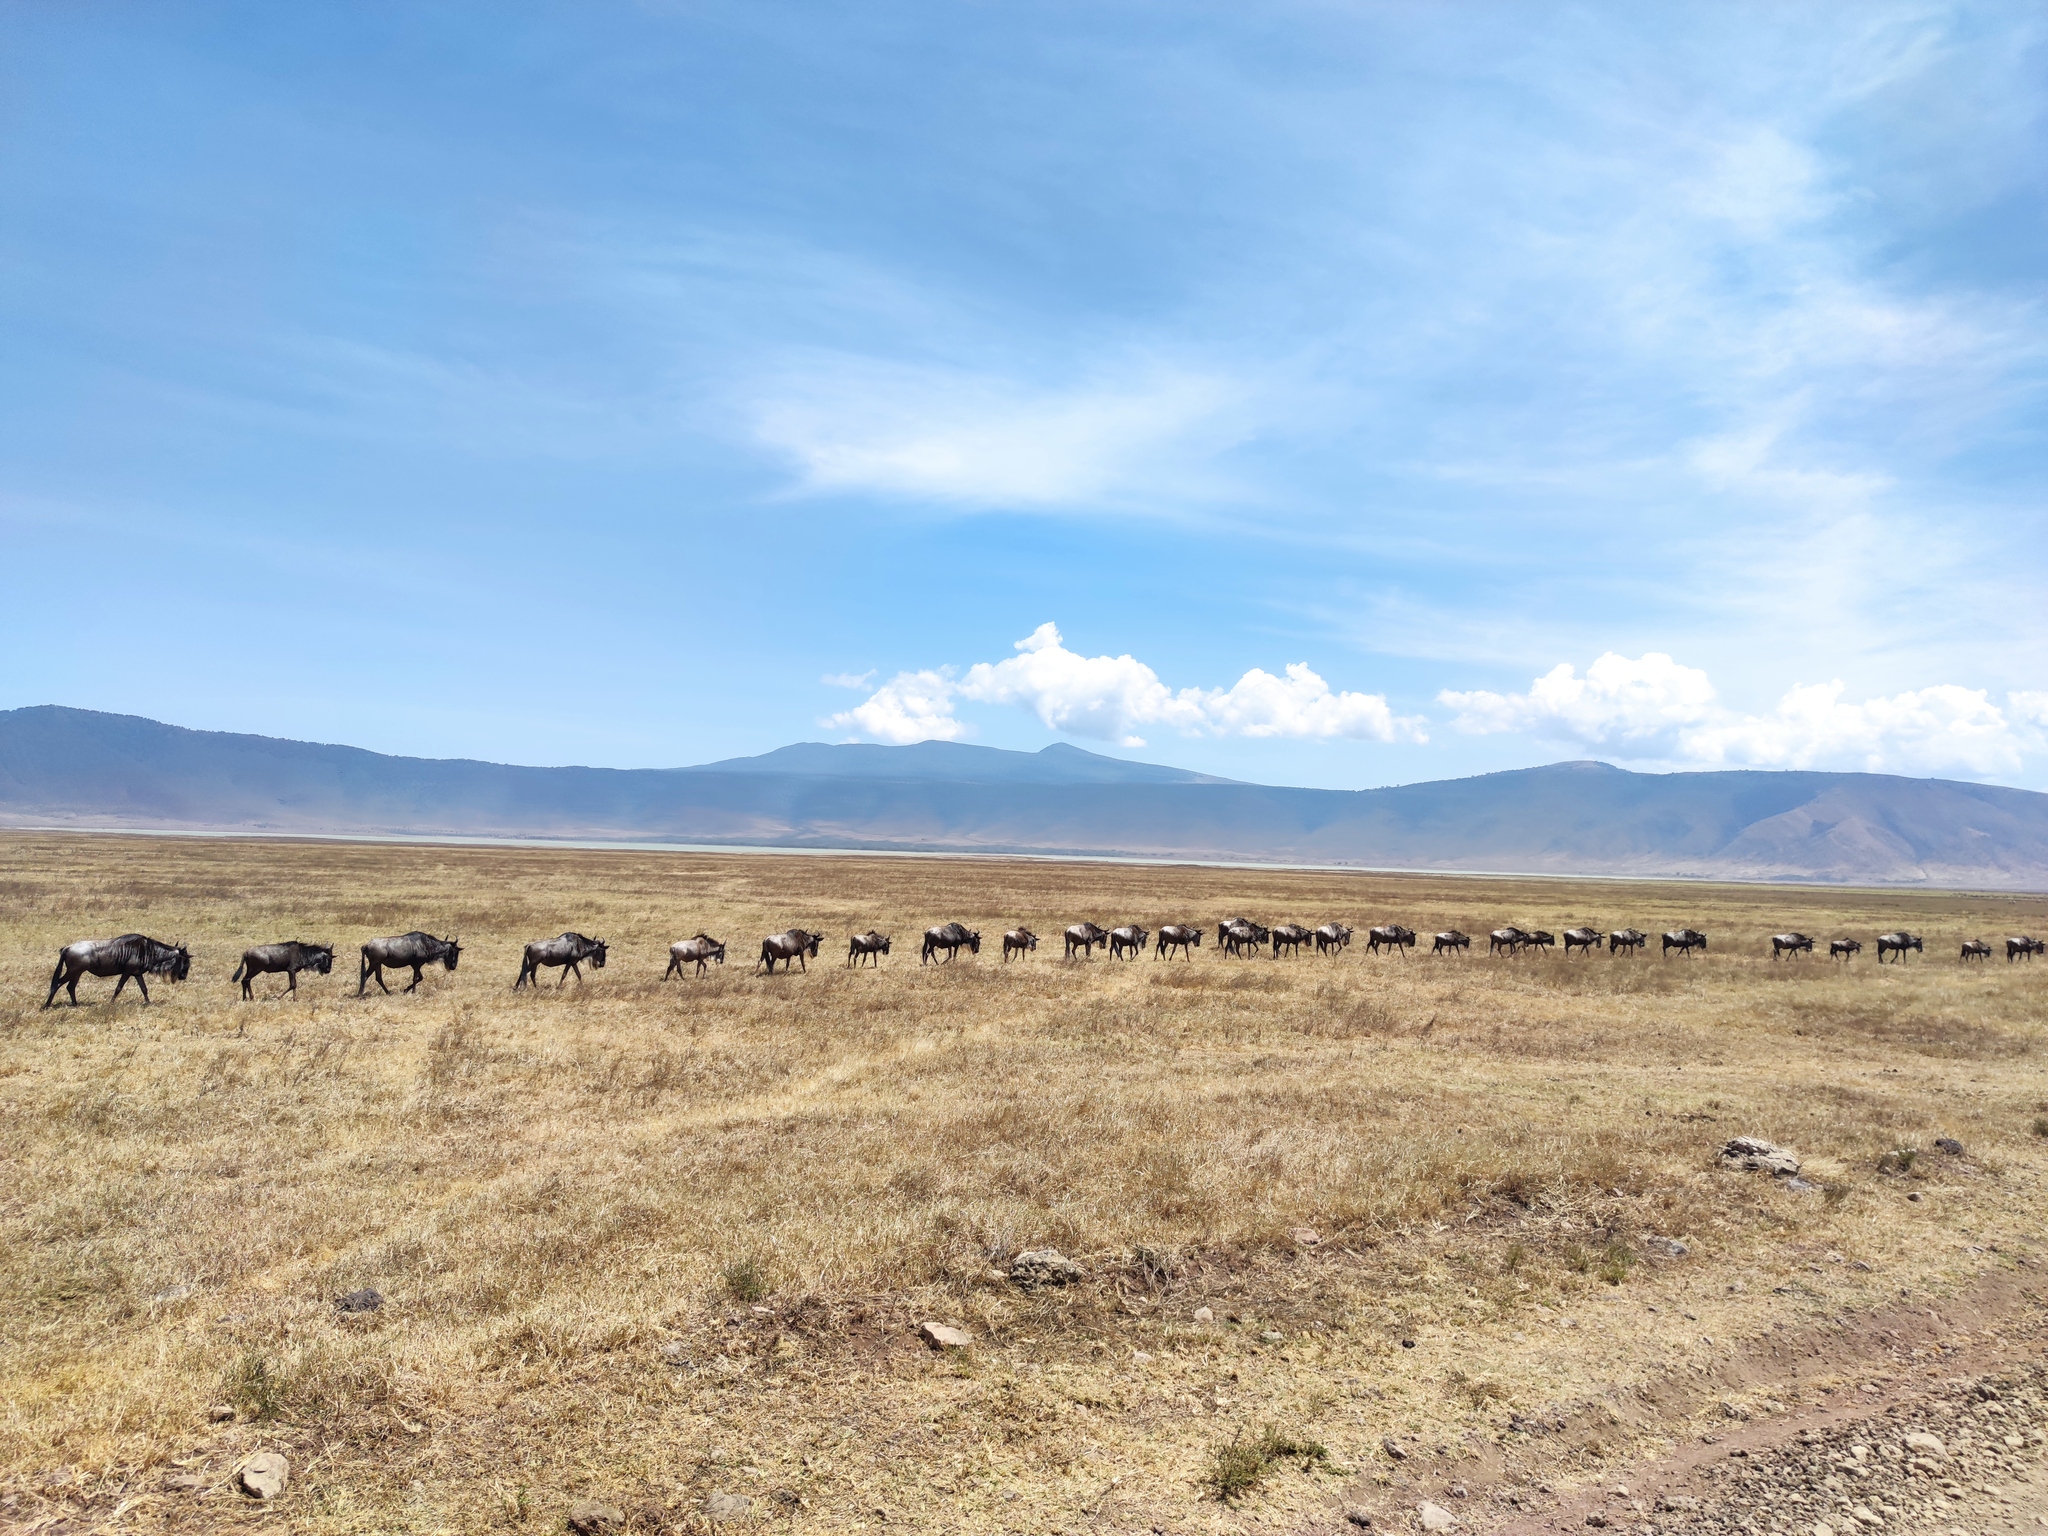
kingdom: Animalia
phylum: Chordata
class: Mammalia
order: Artiodactyla
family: Bovidae
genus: Connochaetes
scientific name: Connochaetes taurinus
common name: Blue wildebeest
